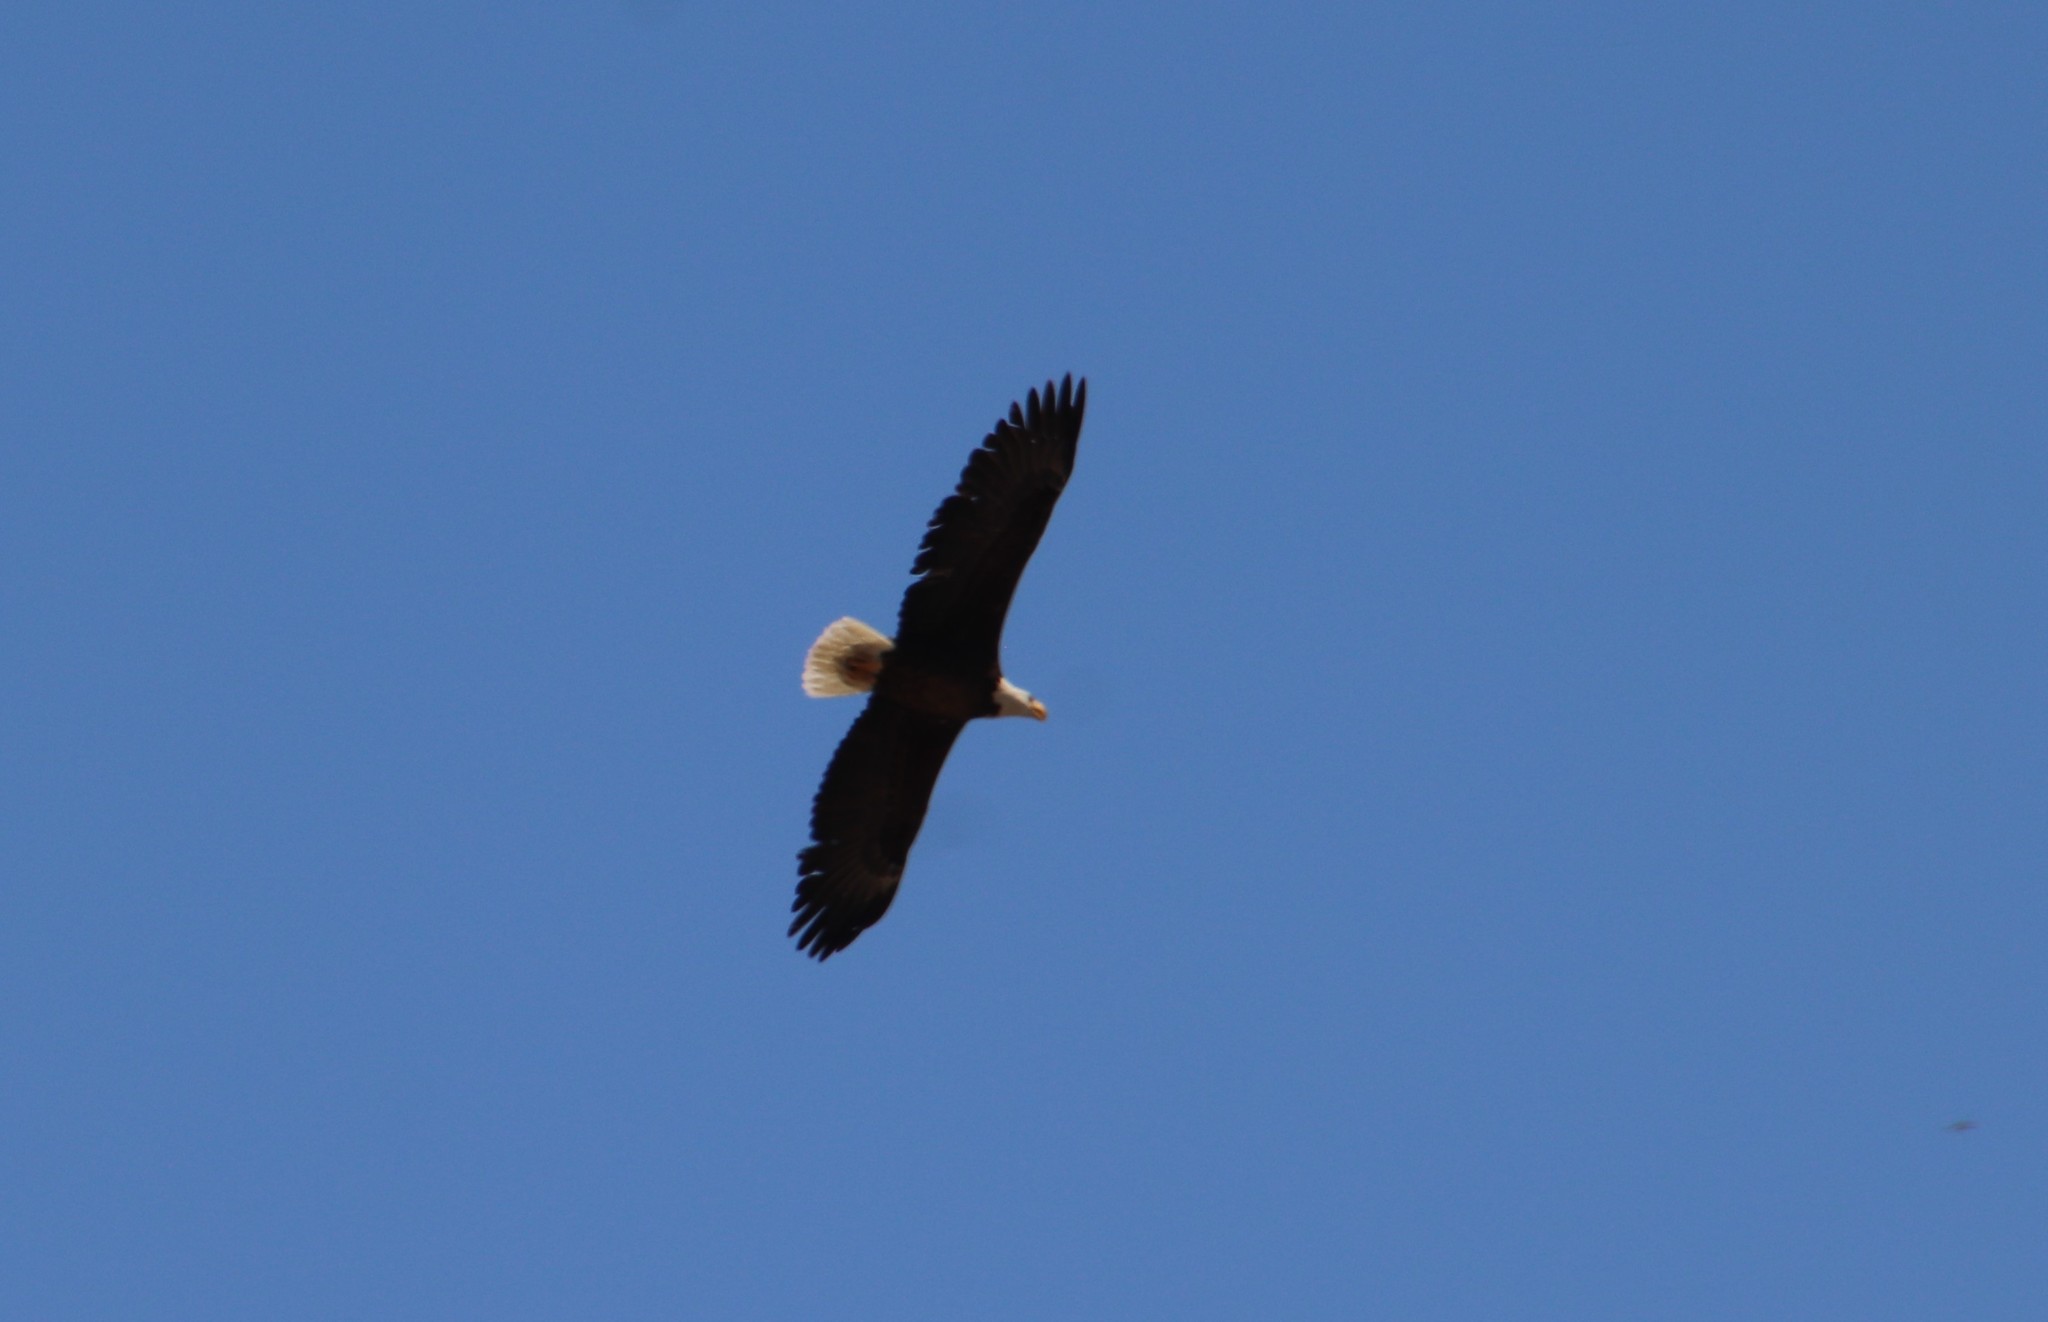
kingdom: Animalia
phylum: Chordata
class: Aves
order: Accipitriformes
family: Accipitridae
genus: Haliaeetus
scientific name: Haliaeetus leucocephalus
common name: Bald eagle
